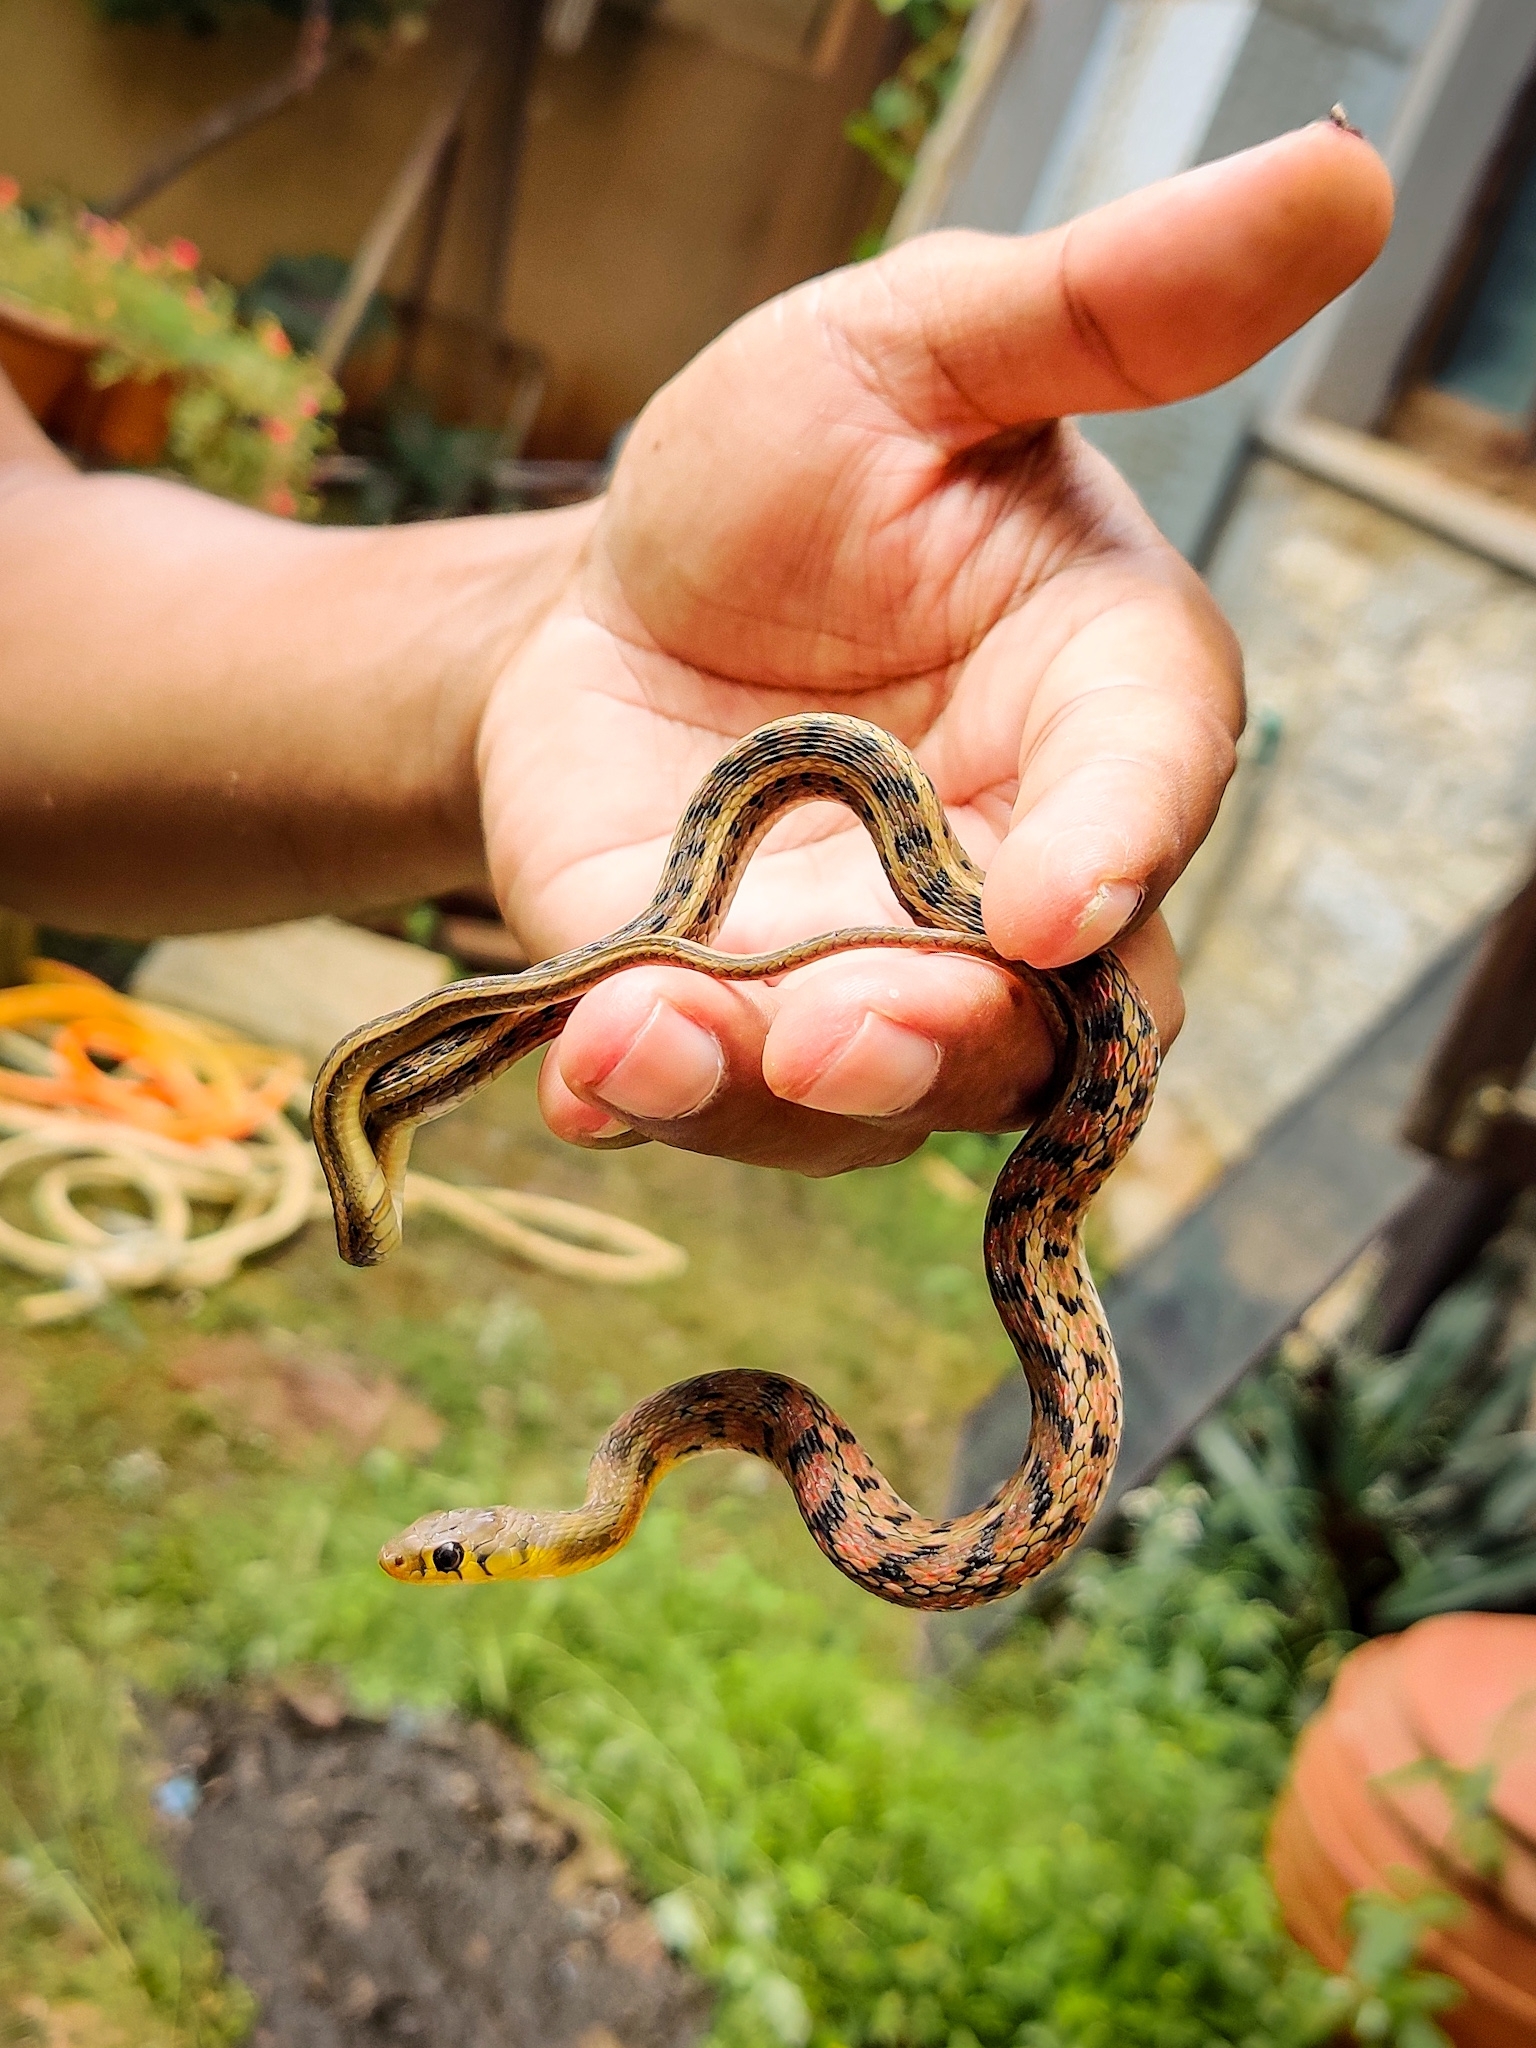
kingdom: Animalia
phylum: Chordata
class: Squamata
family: Colubridae
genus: Amphiesma
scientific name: Amphiesma stolatum
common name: Buff striped keelback
